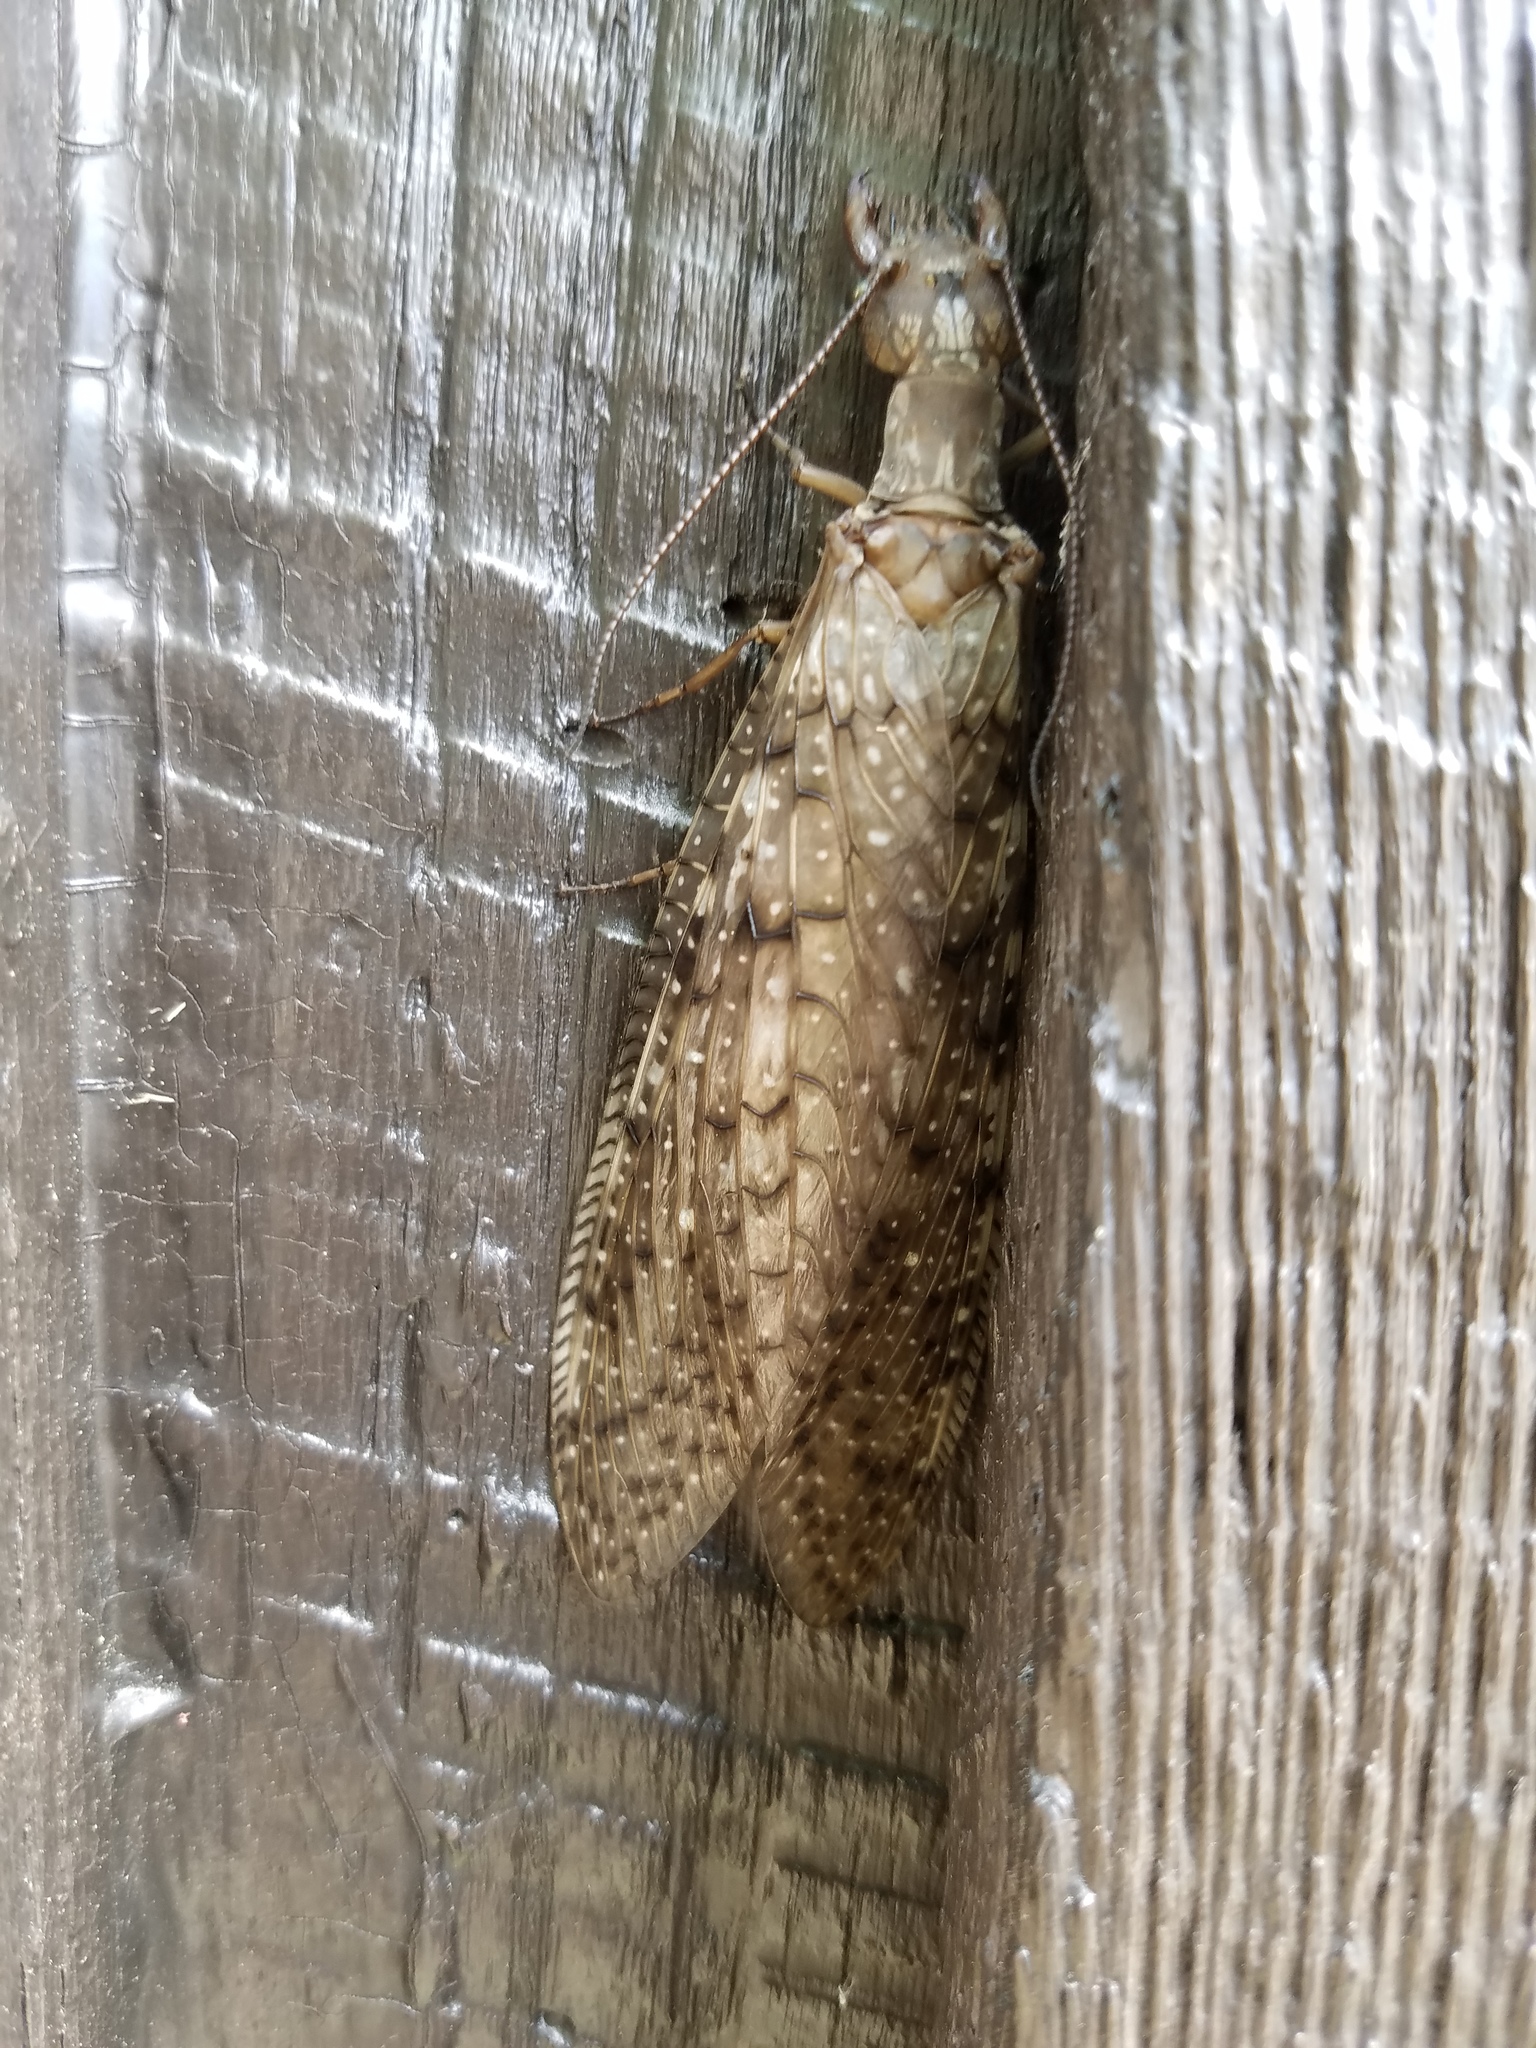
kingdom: Animalia
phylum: Arthropoda
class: Insecta
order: Megaloptera
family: Corydalidae
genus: Corydalus
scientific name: Corydalus cornutus
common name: Dobsonfly
